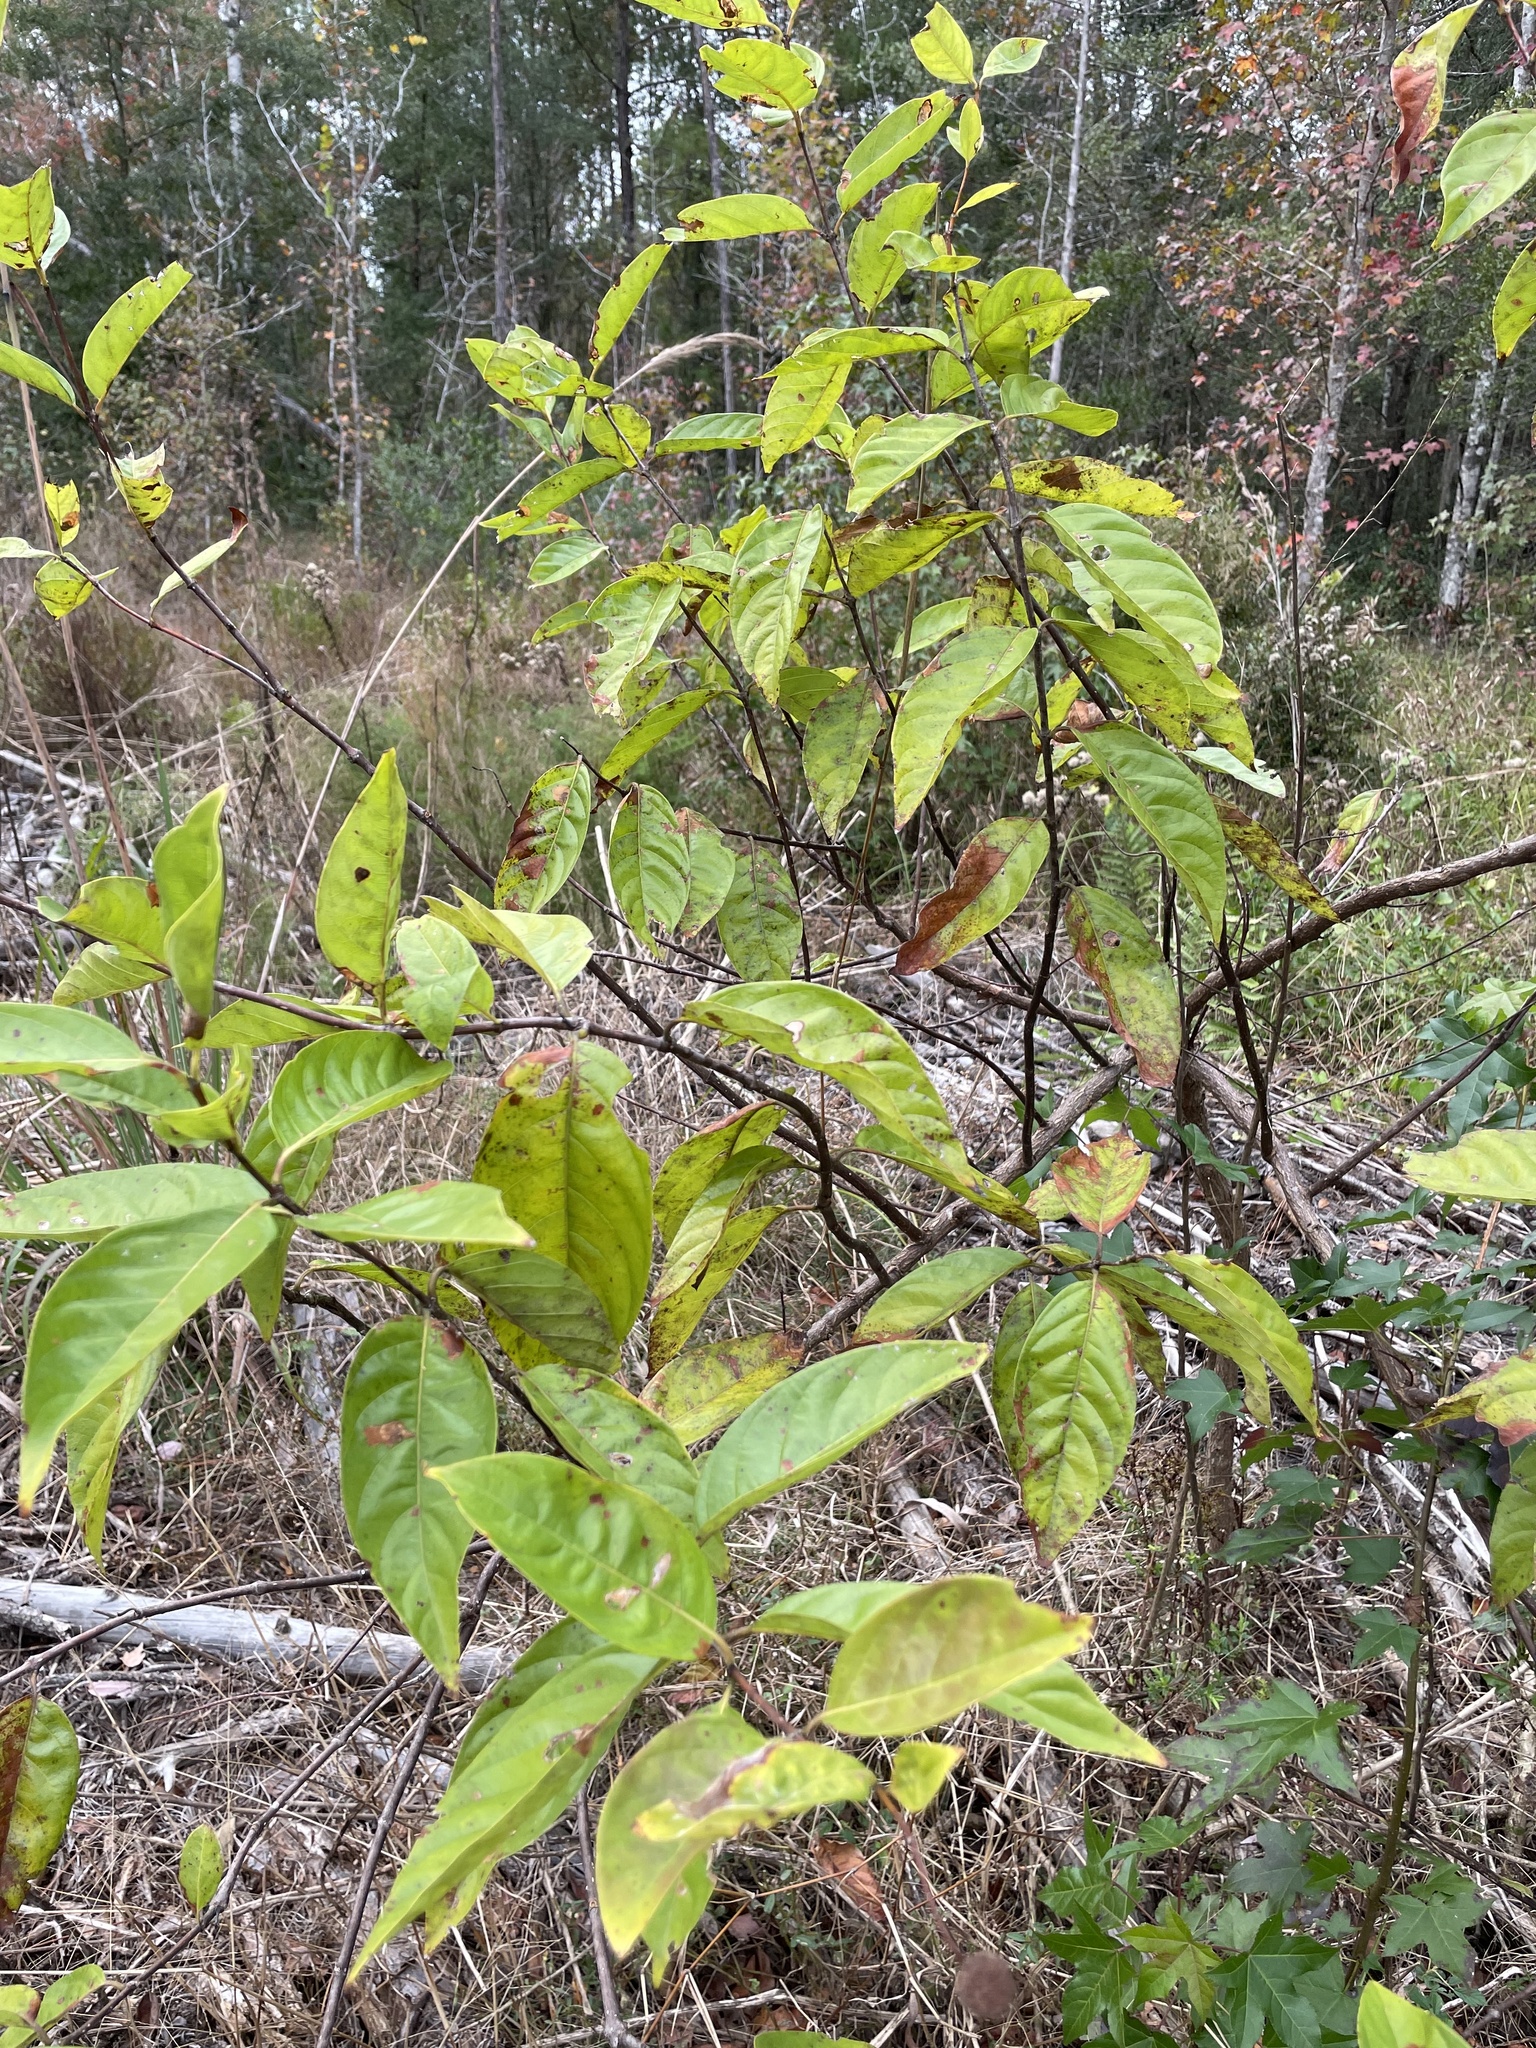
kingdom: Plantae
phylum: Tracheophyta
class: Magnoliopsida
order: Gentianales
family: Rubiaceae
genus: Cephalanthus
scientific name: Cephalanthus occidentalis
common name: Button-willow
